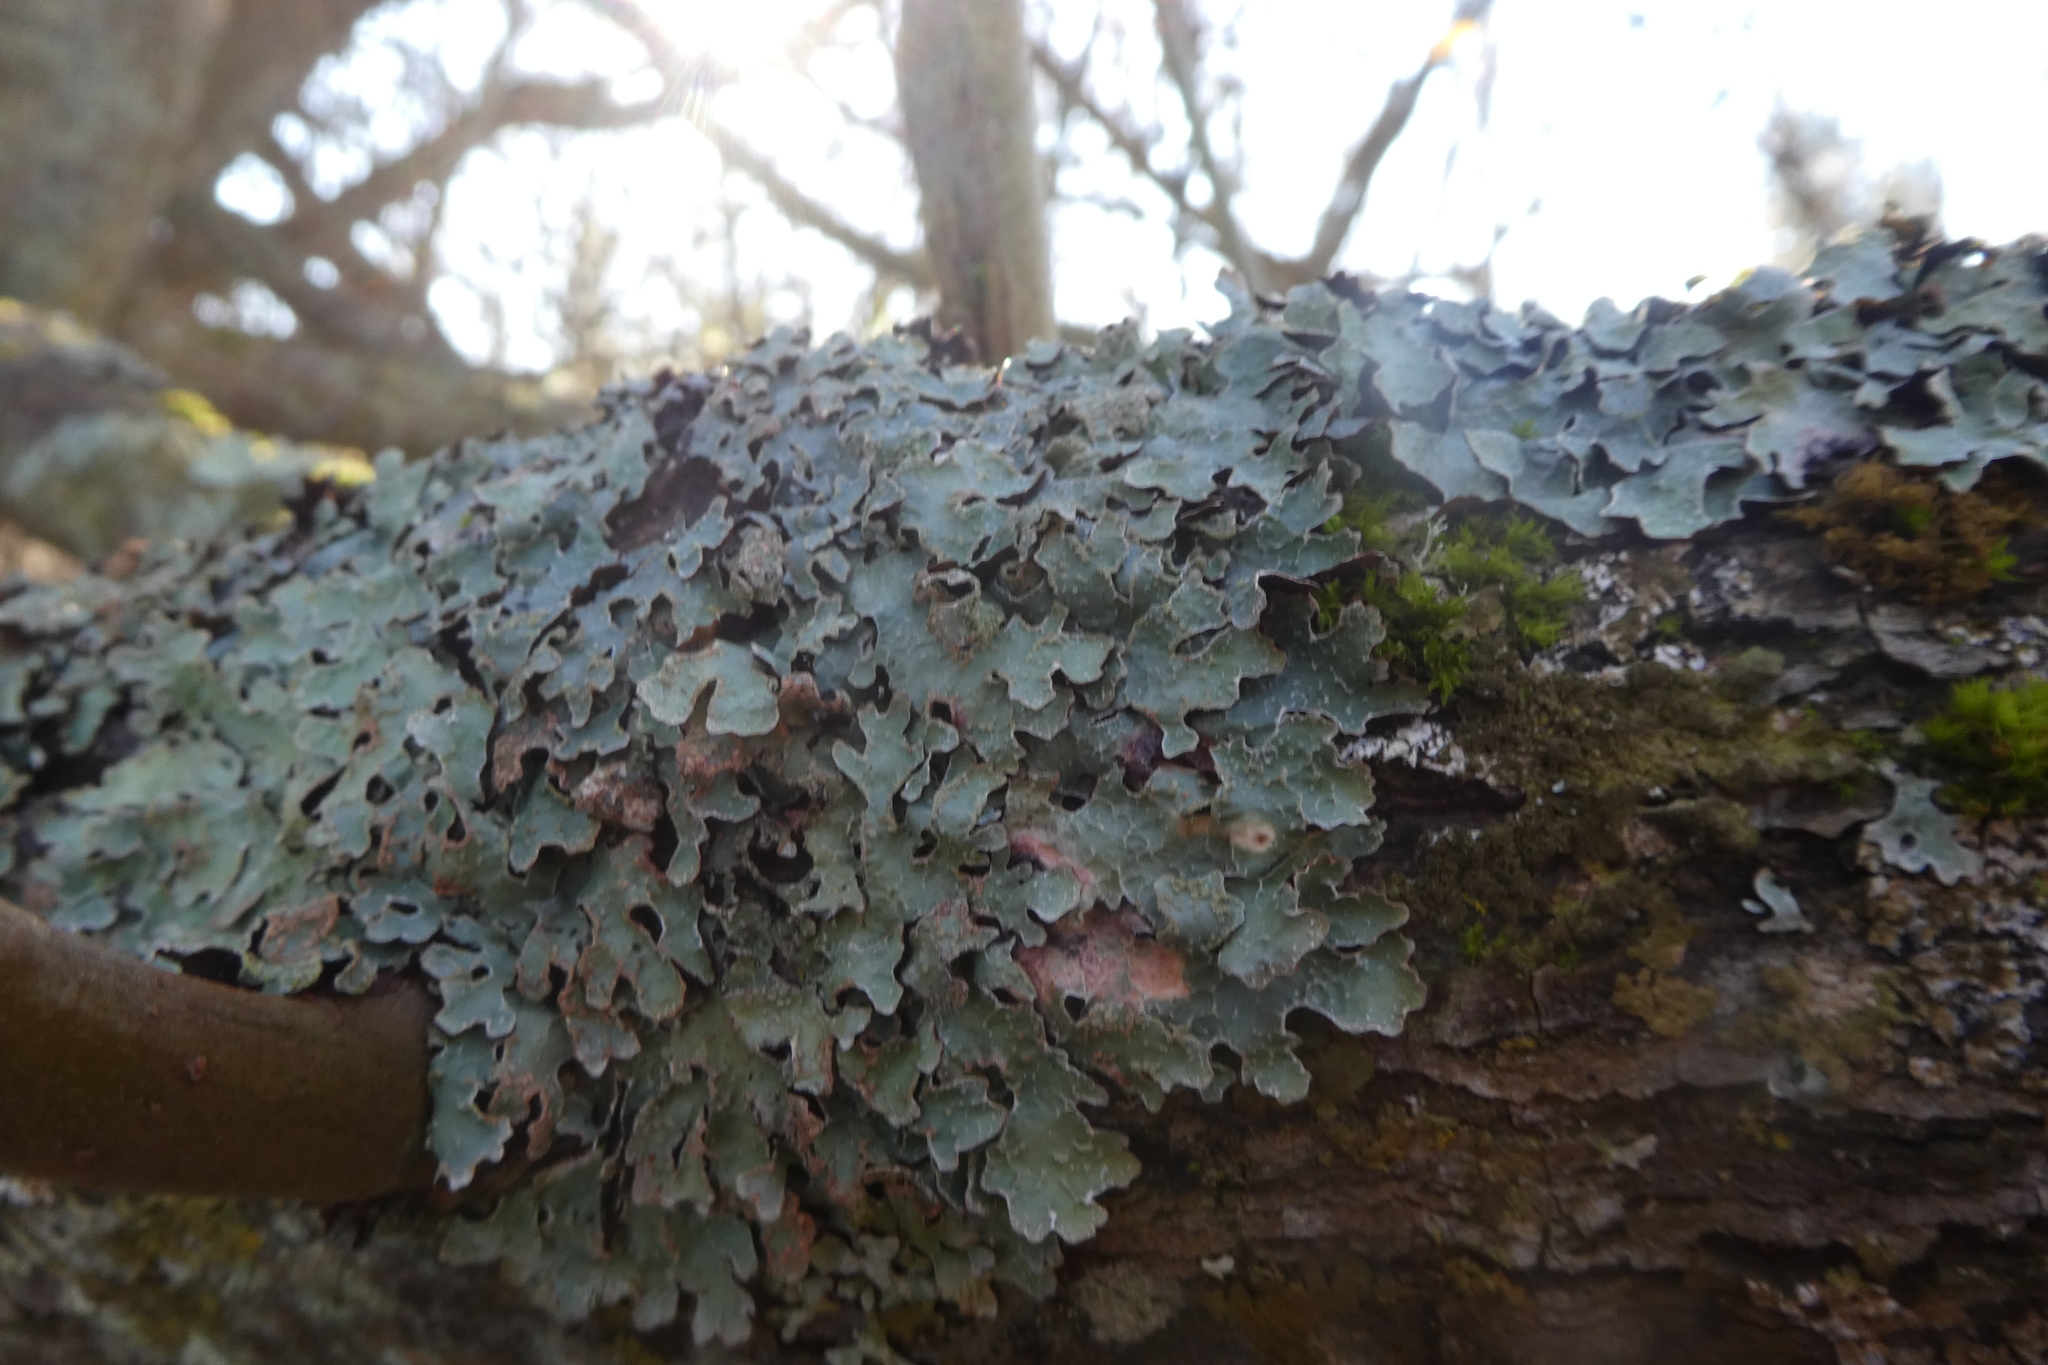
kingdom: Fungi
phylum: Ascomycota
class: Lecanoromycetes
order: Lecanorales
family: Parmeliaceae
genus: Parmelia
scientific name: Parmelia sulcata
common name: Netted shield lichen
